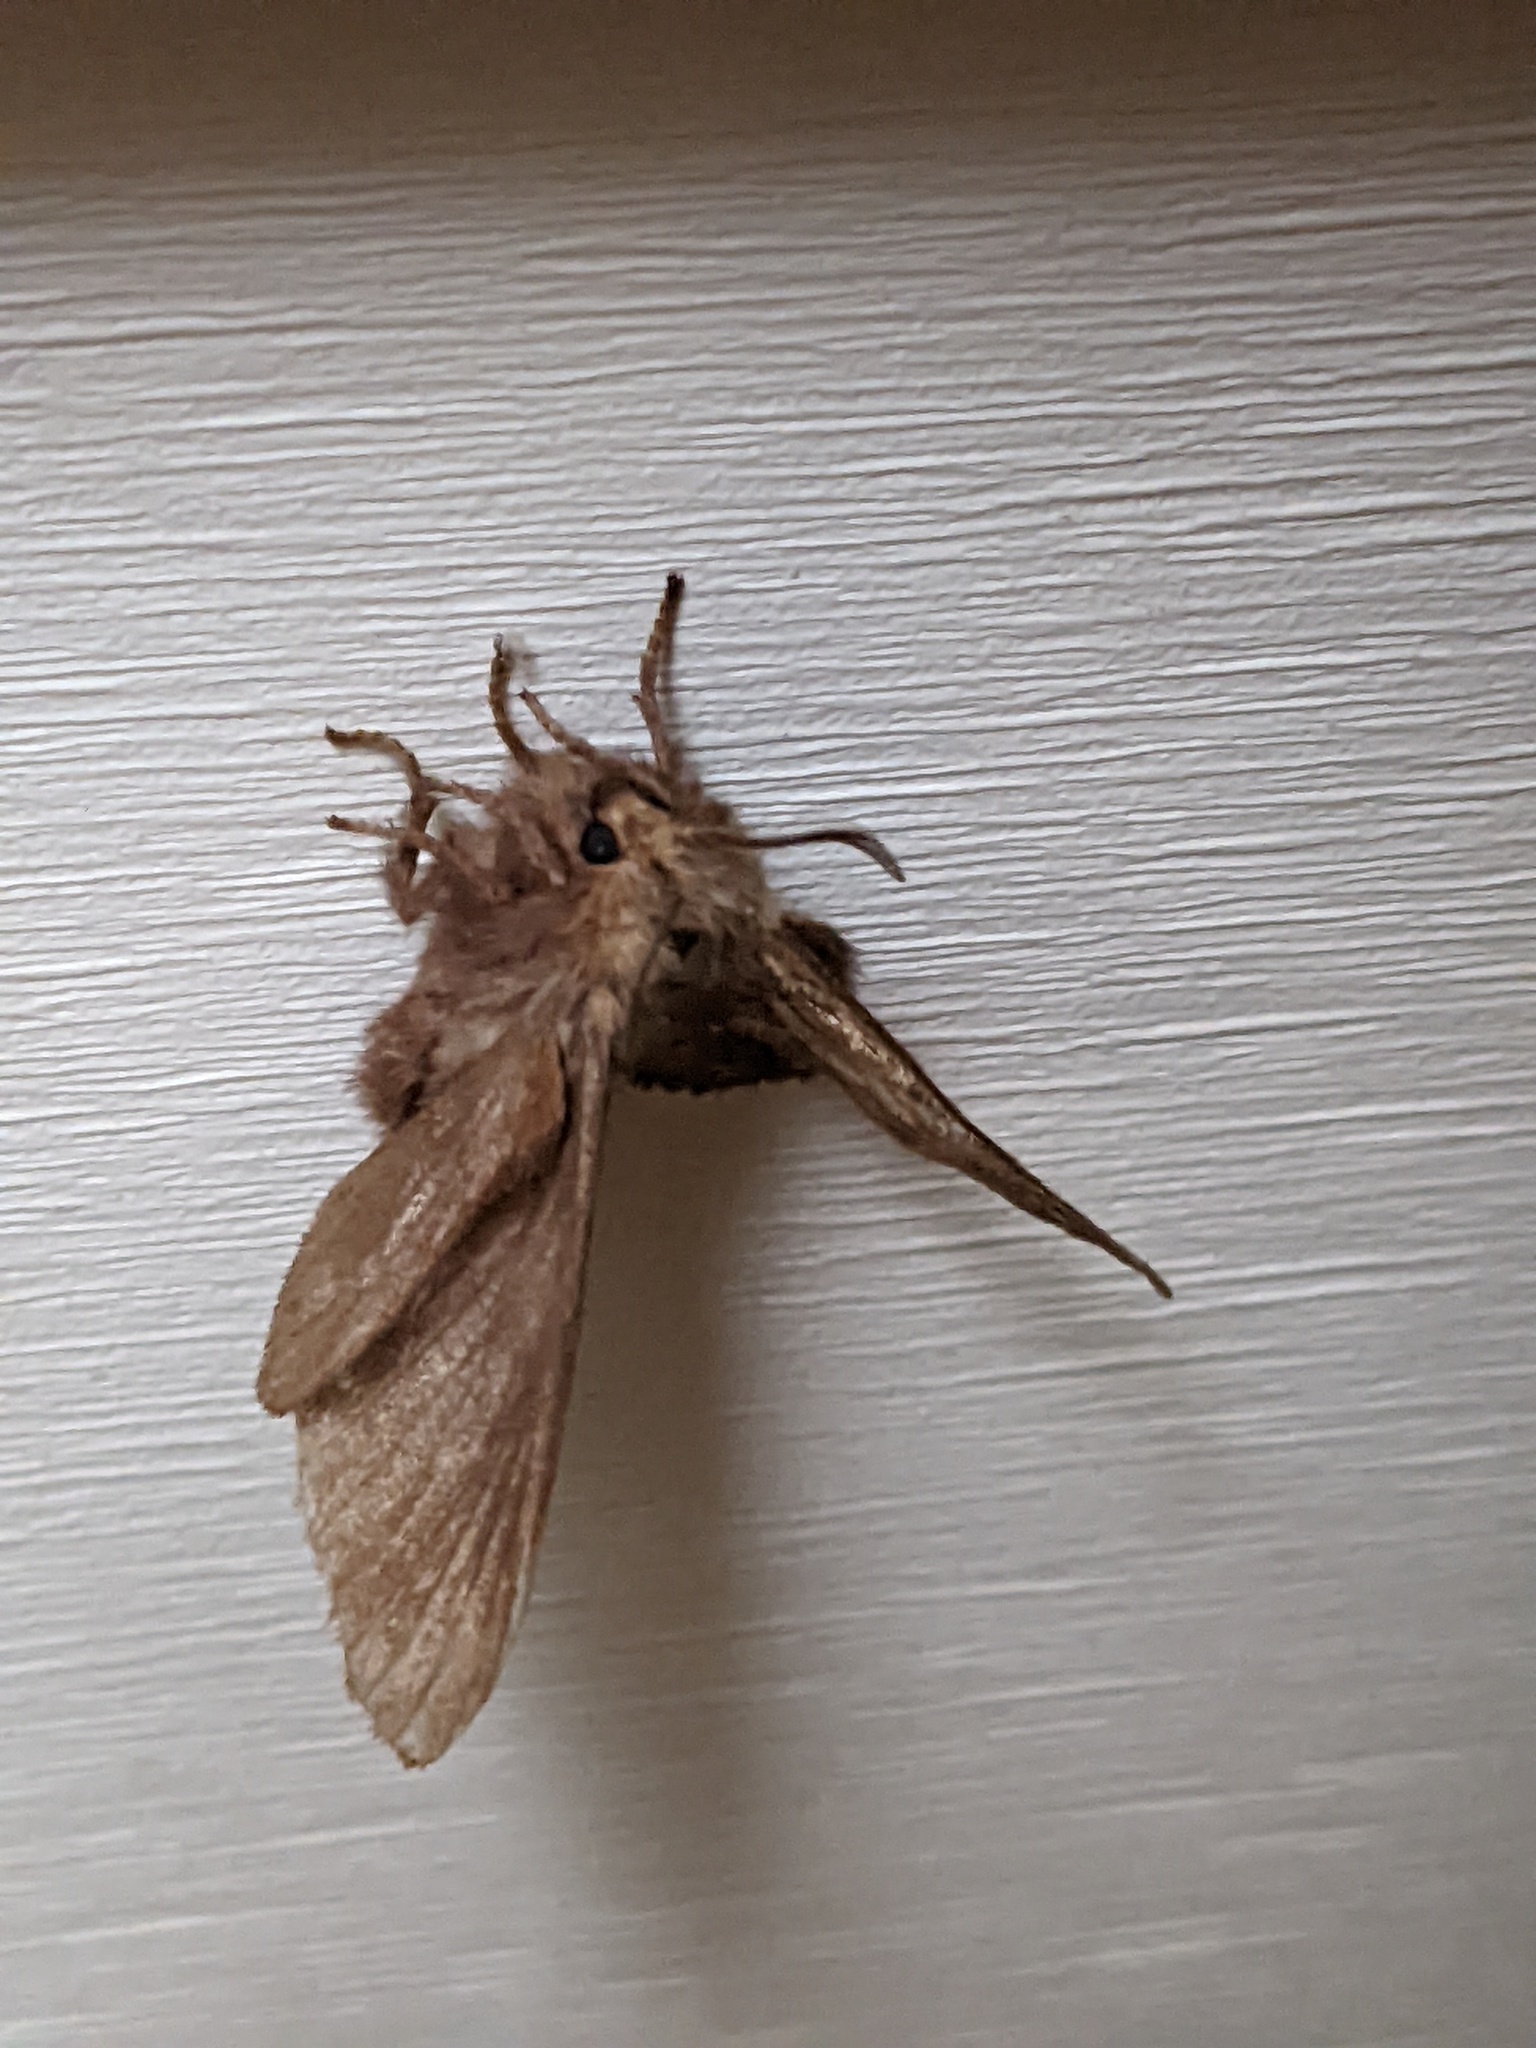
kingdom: Animalia
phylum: Arthropoda
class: Insecta
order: Lepidoptera
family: Lasiocampidae
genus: Malacosoma
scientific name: Malacosoma americana
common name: Eastern tent caterpillar moth
